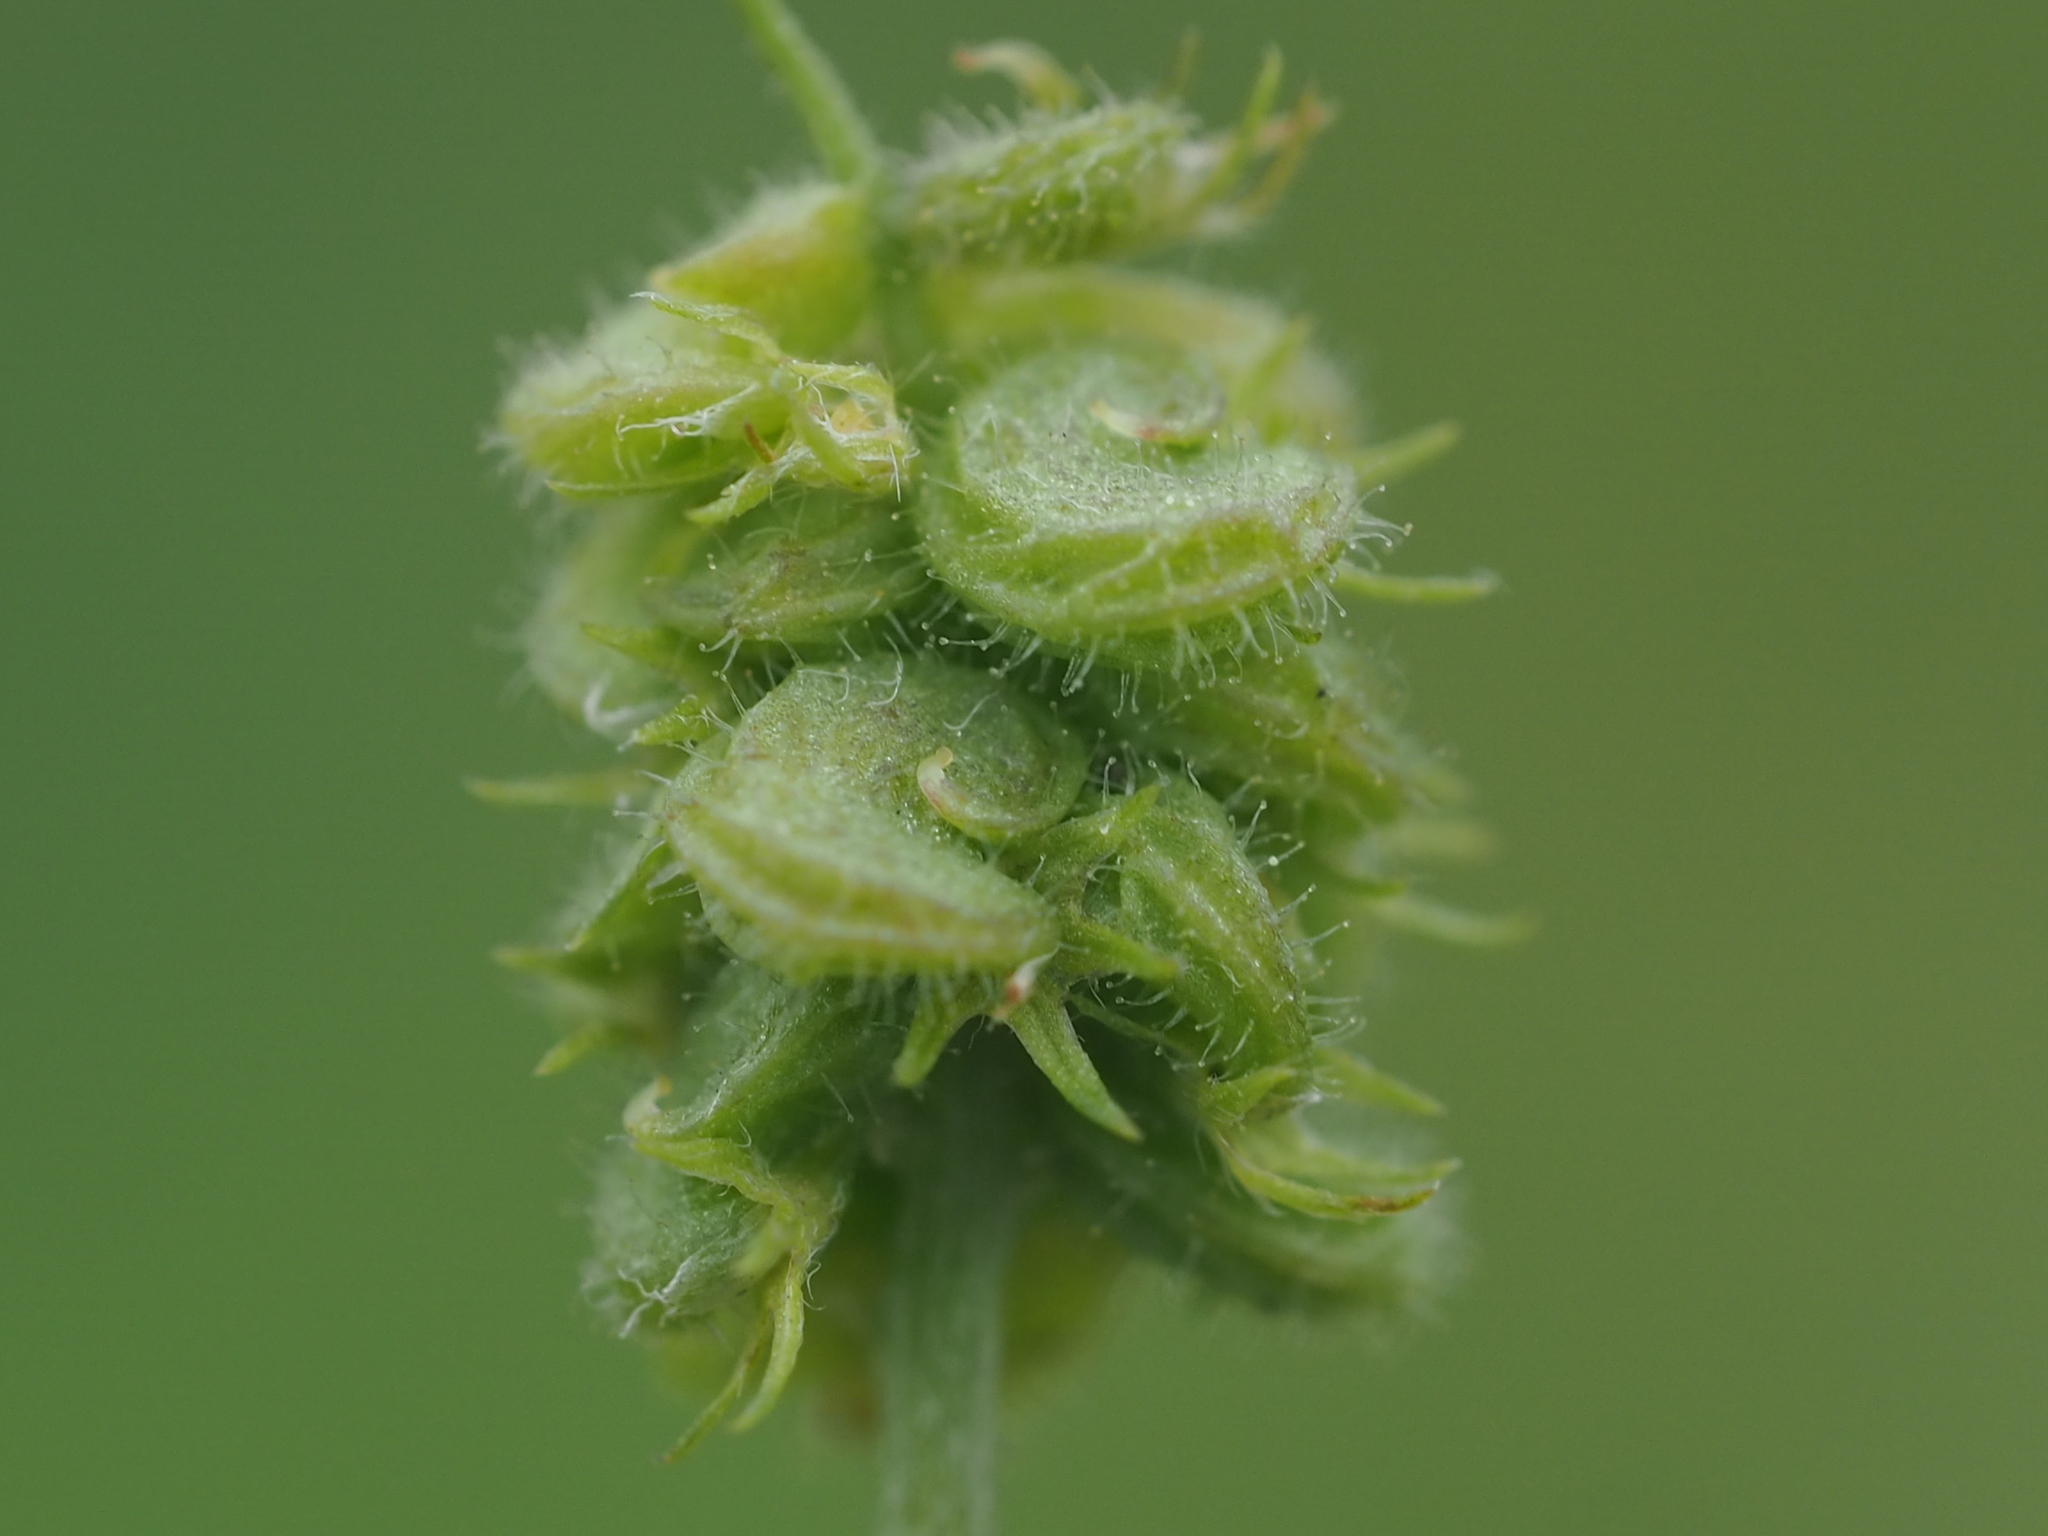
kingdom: Plantae
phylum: Tracheophyta
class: Magnoliopsida
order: Fabales
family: Fabaceae
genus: Medicago
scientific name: Medicago lupulina
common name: Black medick
